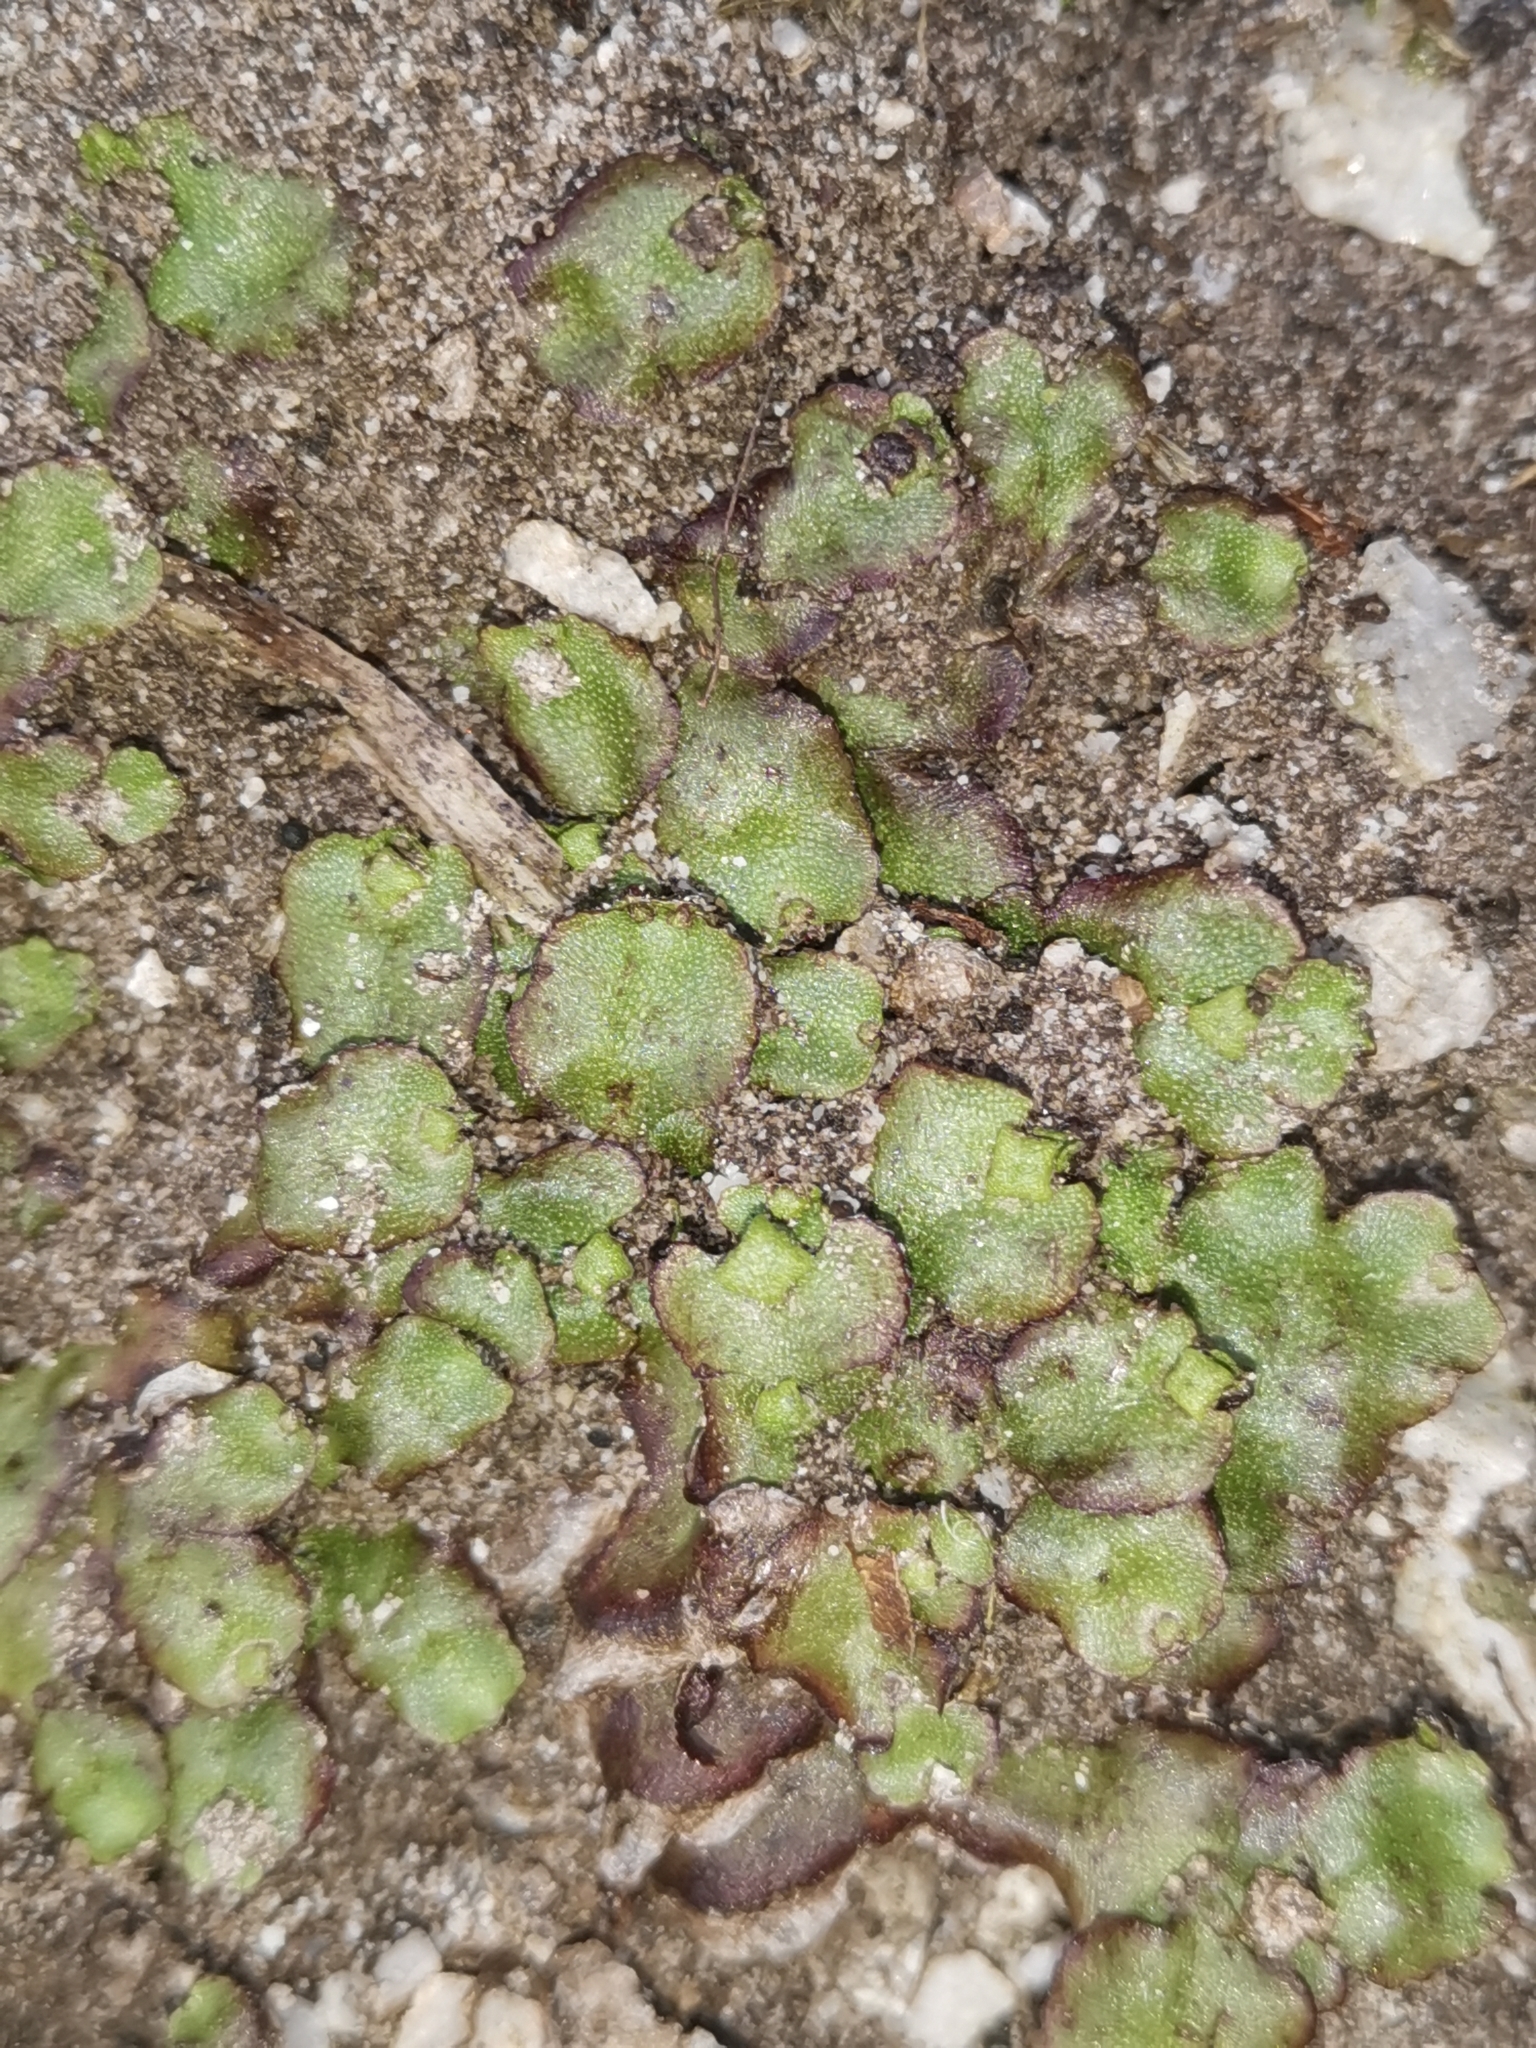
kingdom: Plantae
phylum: Marchantiophyta
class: Marchantiopsida
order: Marchantiales
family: Marchantiaceae
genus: Marchantia
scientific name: Marchantia quadrata
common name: Narrow mushroom-headed liverwort
